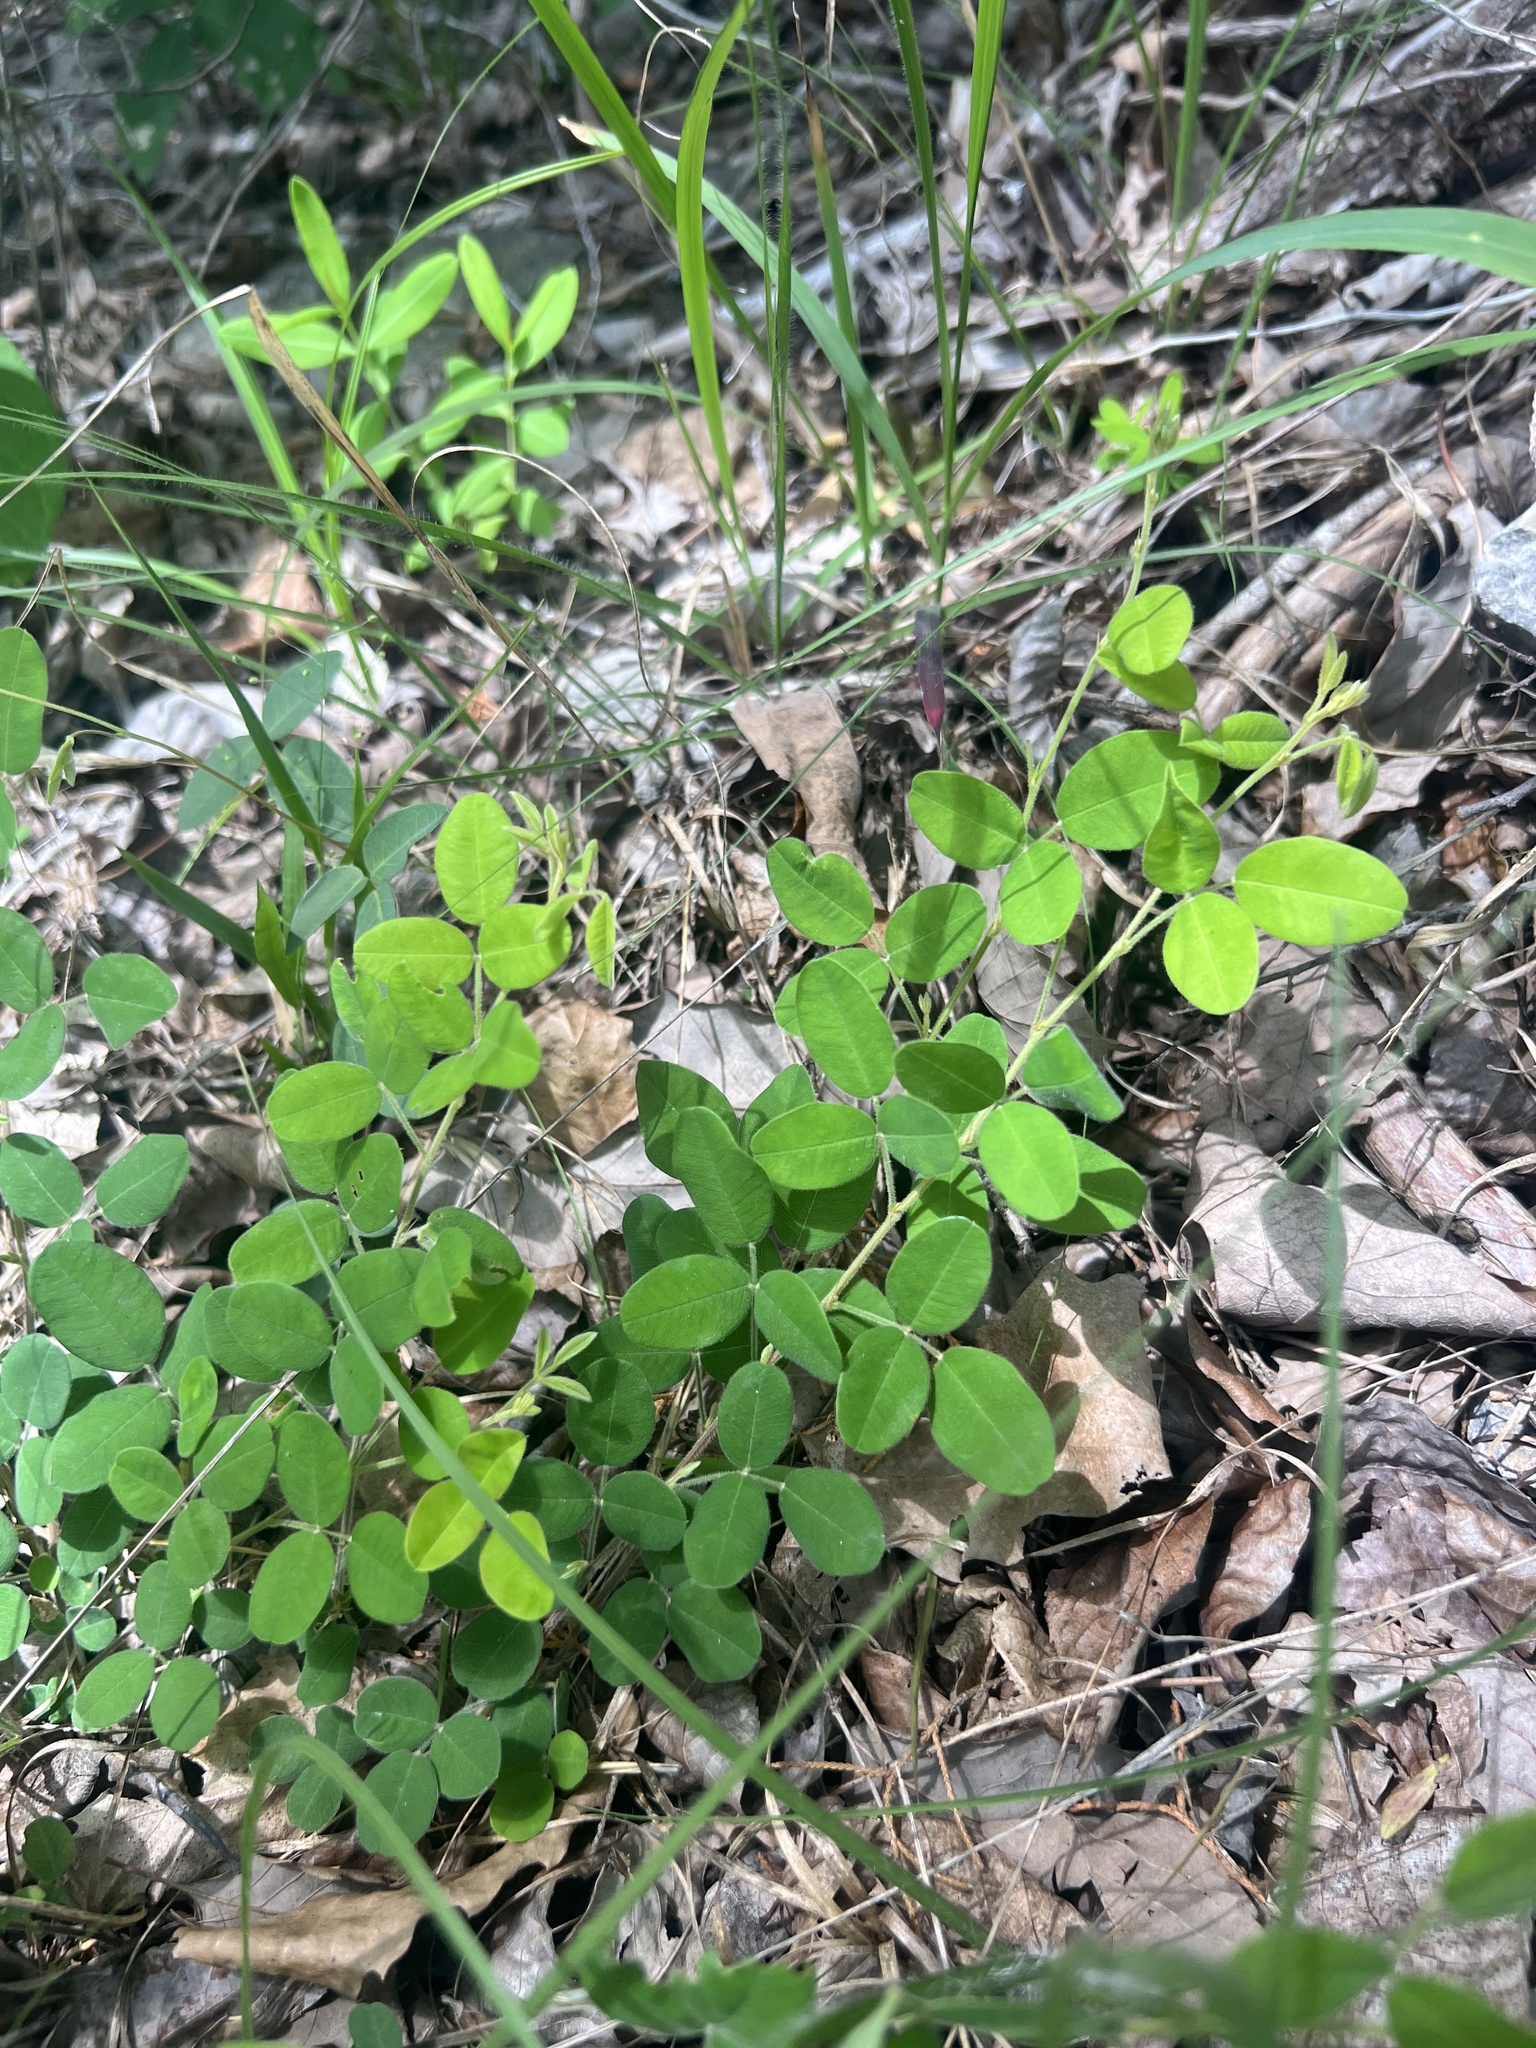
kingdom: Plantae
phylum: Tracheophyta
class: Magnoliopsida
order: Fabales
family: Fabaceae
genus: Lespedeza
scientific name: Lespedeza procumbens
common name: Downy trailing bush-clover
